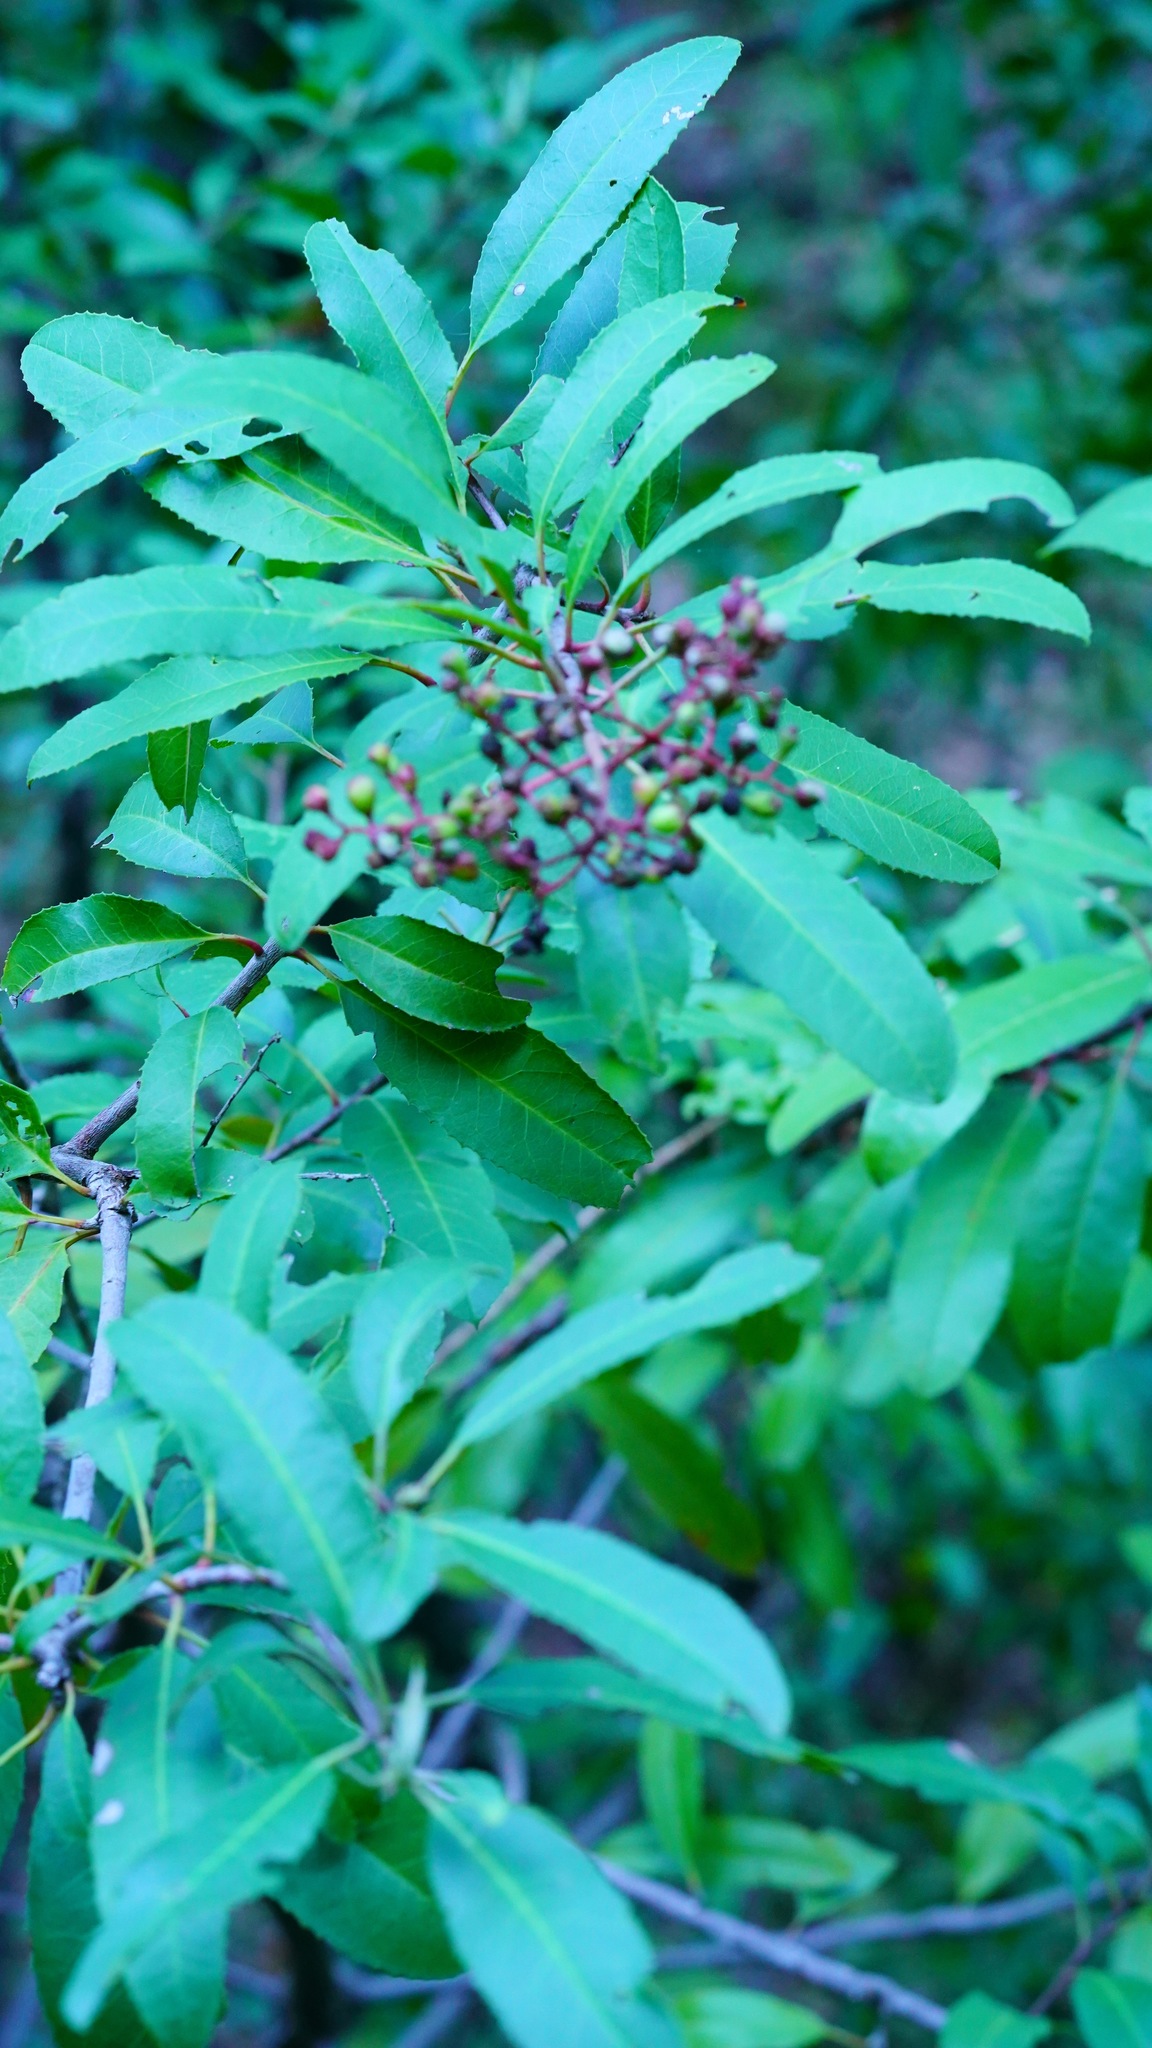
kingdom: Plantae
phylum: Tracheophyta
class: Magnoliopsida
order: Rosales
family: Rosaceae
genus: Heteromeles
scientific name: Heteromeles arbutifolia
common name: California-holly
